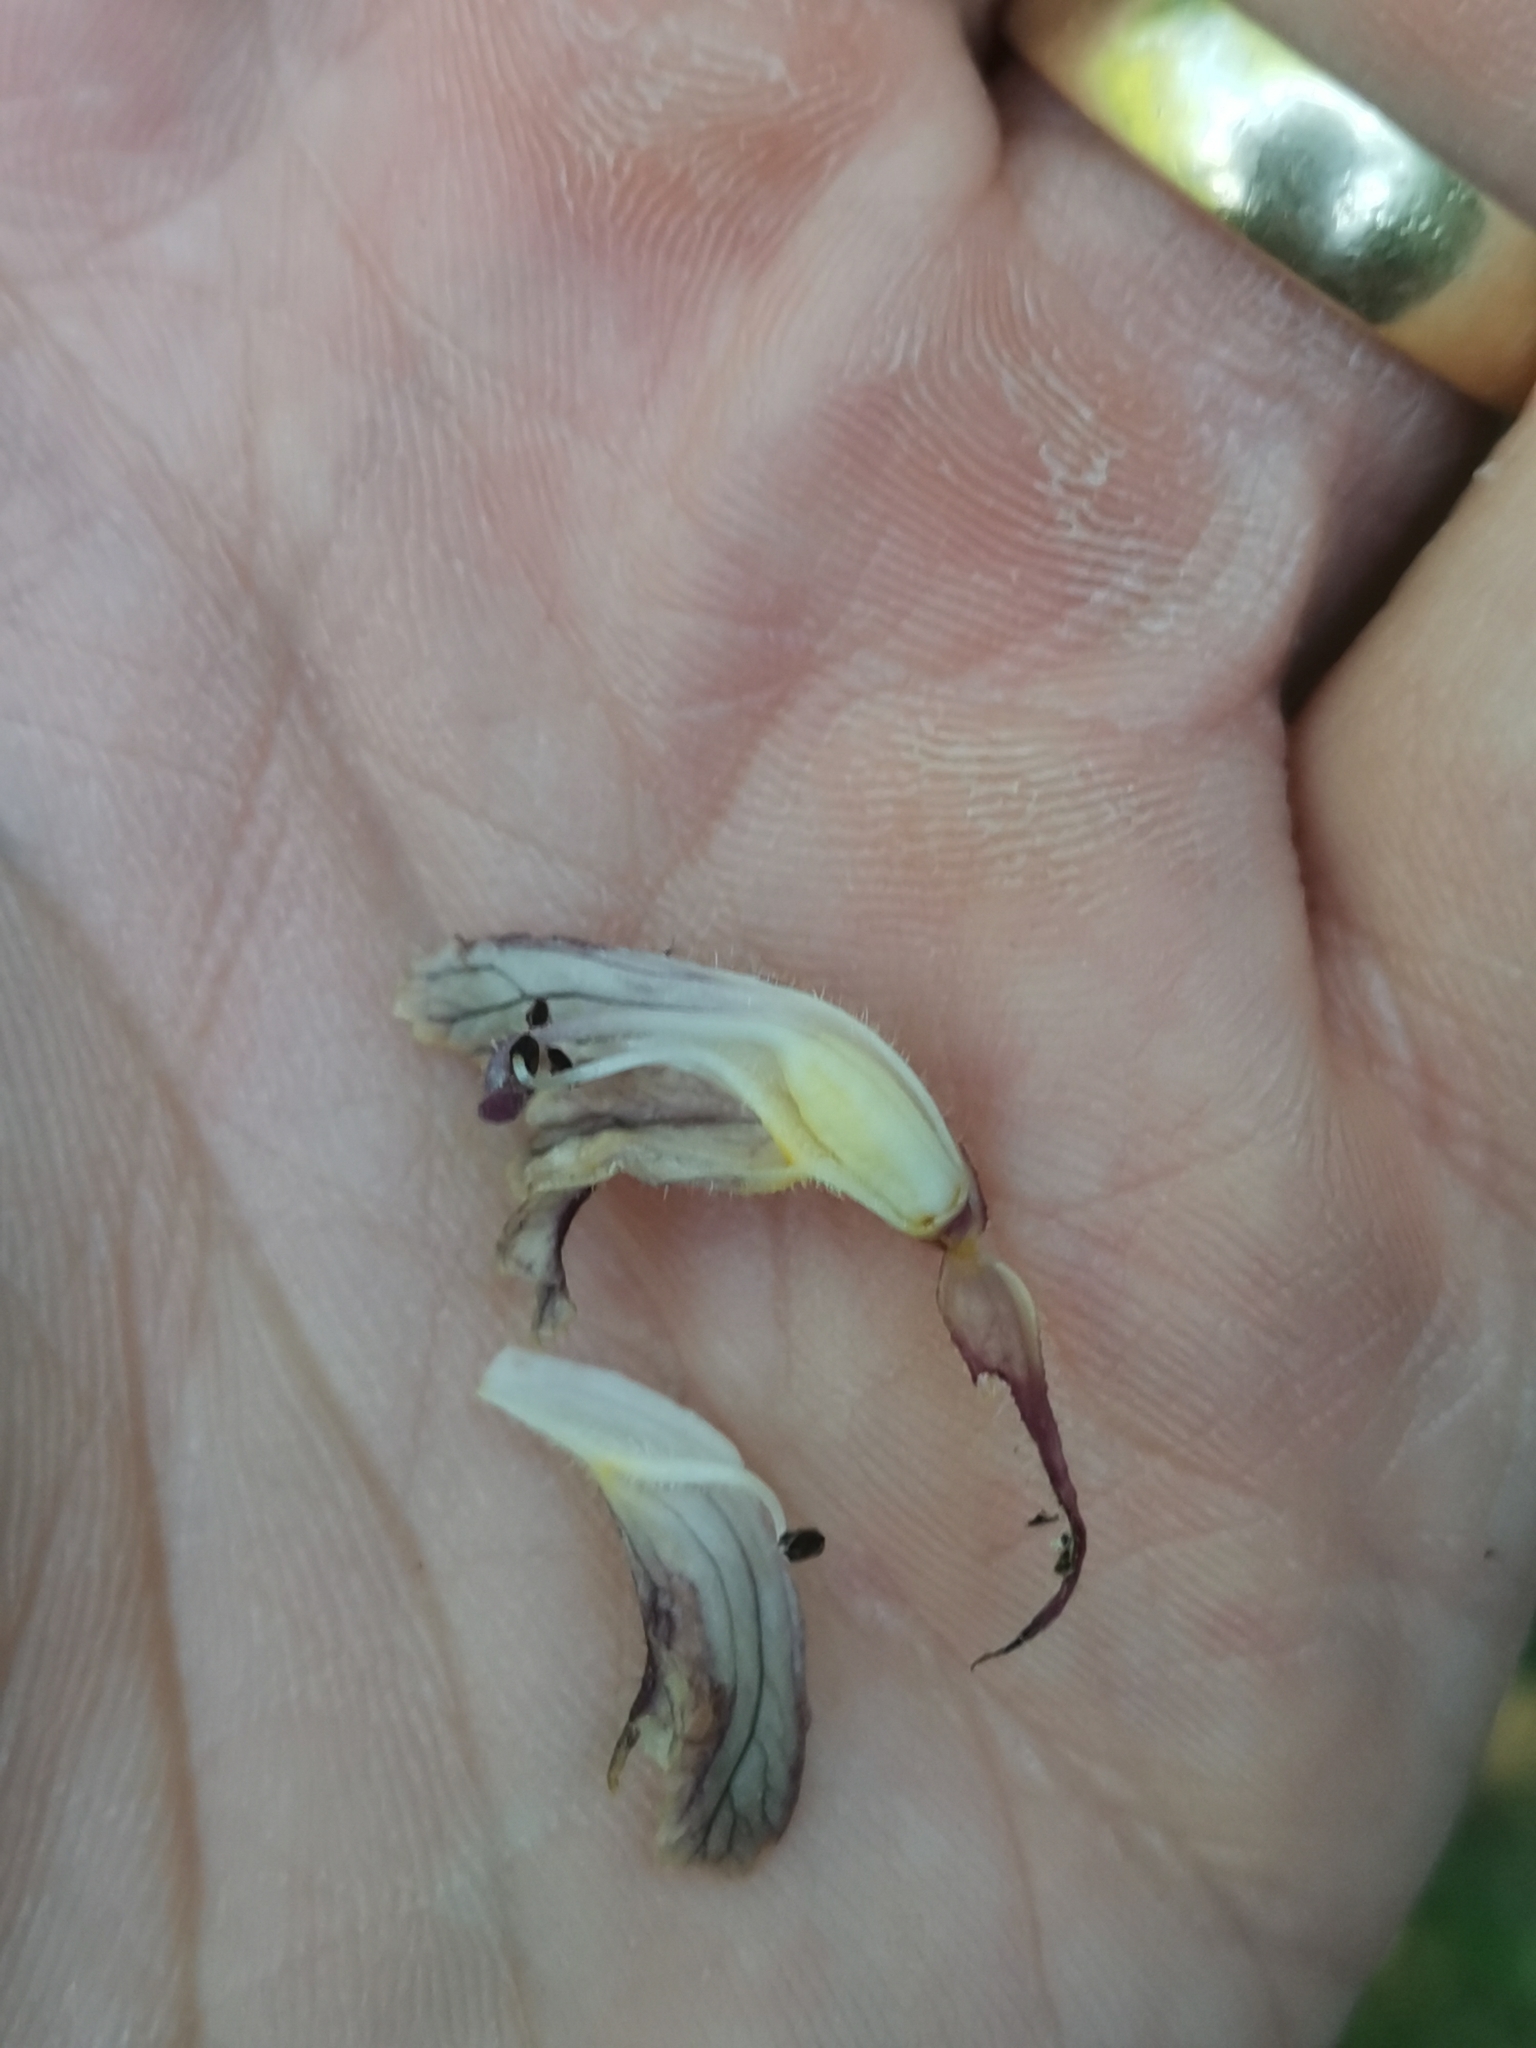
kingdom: Plantae
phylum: Tracheophyta
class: Magnoliopsida
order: Lamiales
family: Orobanchaceae
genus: Orobanche
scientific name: Orobanche minor
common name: Common broomrape
